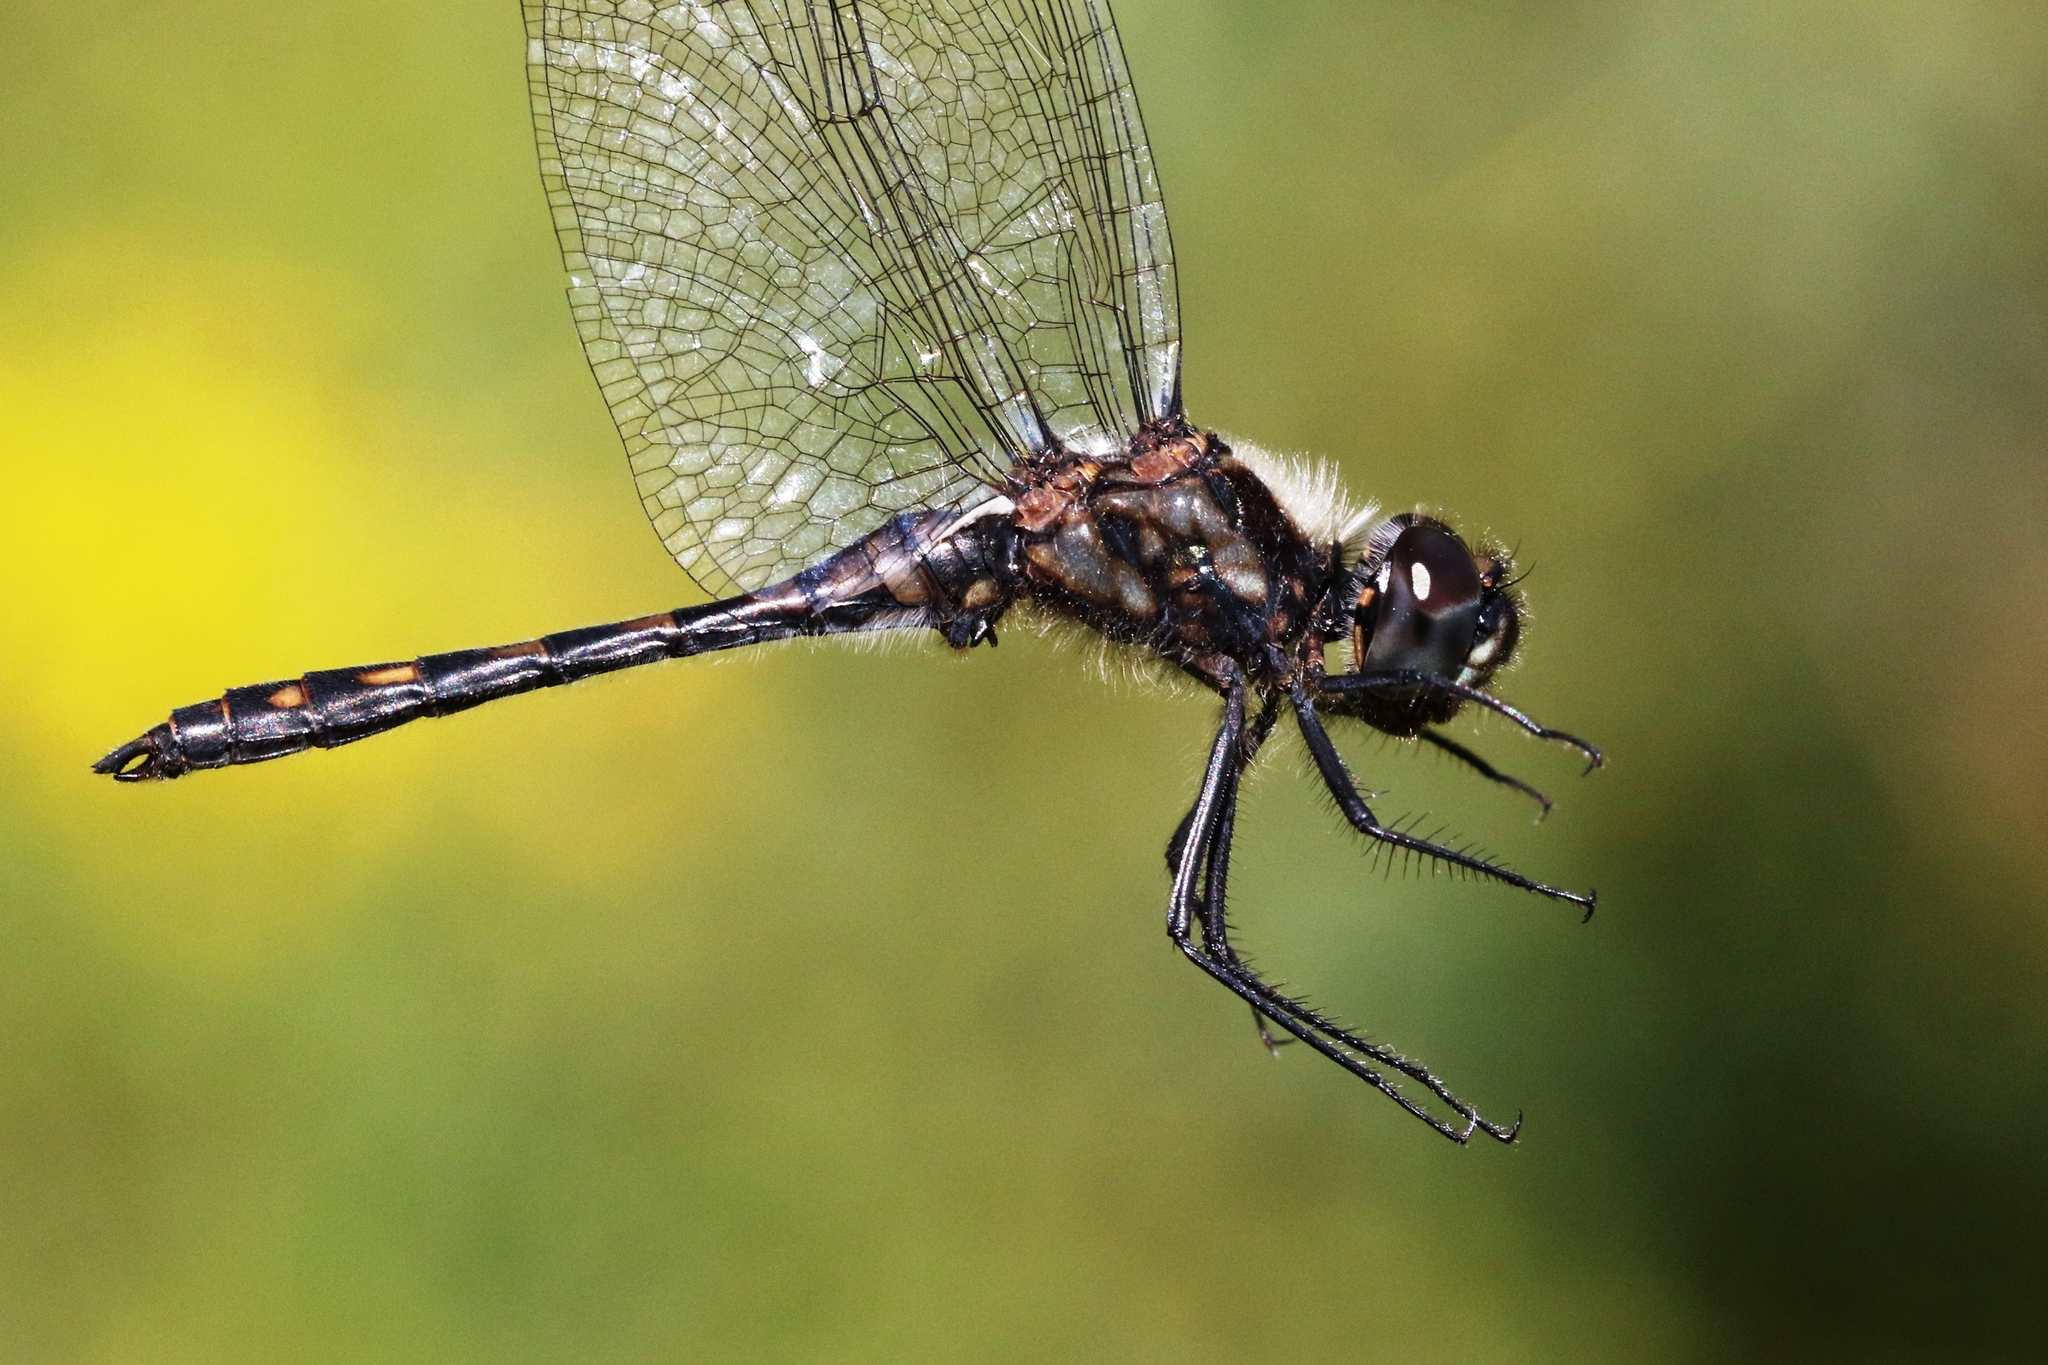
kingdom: Animalia
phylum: Arthropoda
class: Insecta
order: Odonata
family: Libellulidae
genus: Sympetrum
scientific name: Sympetrum danae
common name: Black darter
